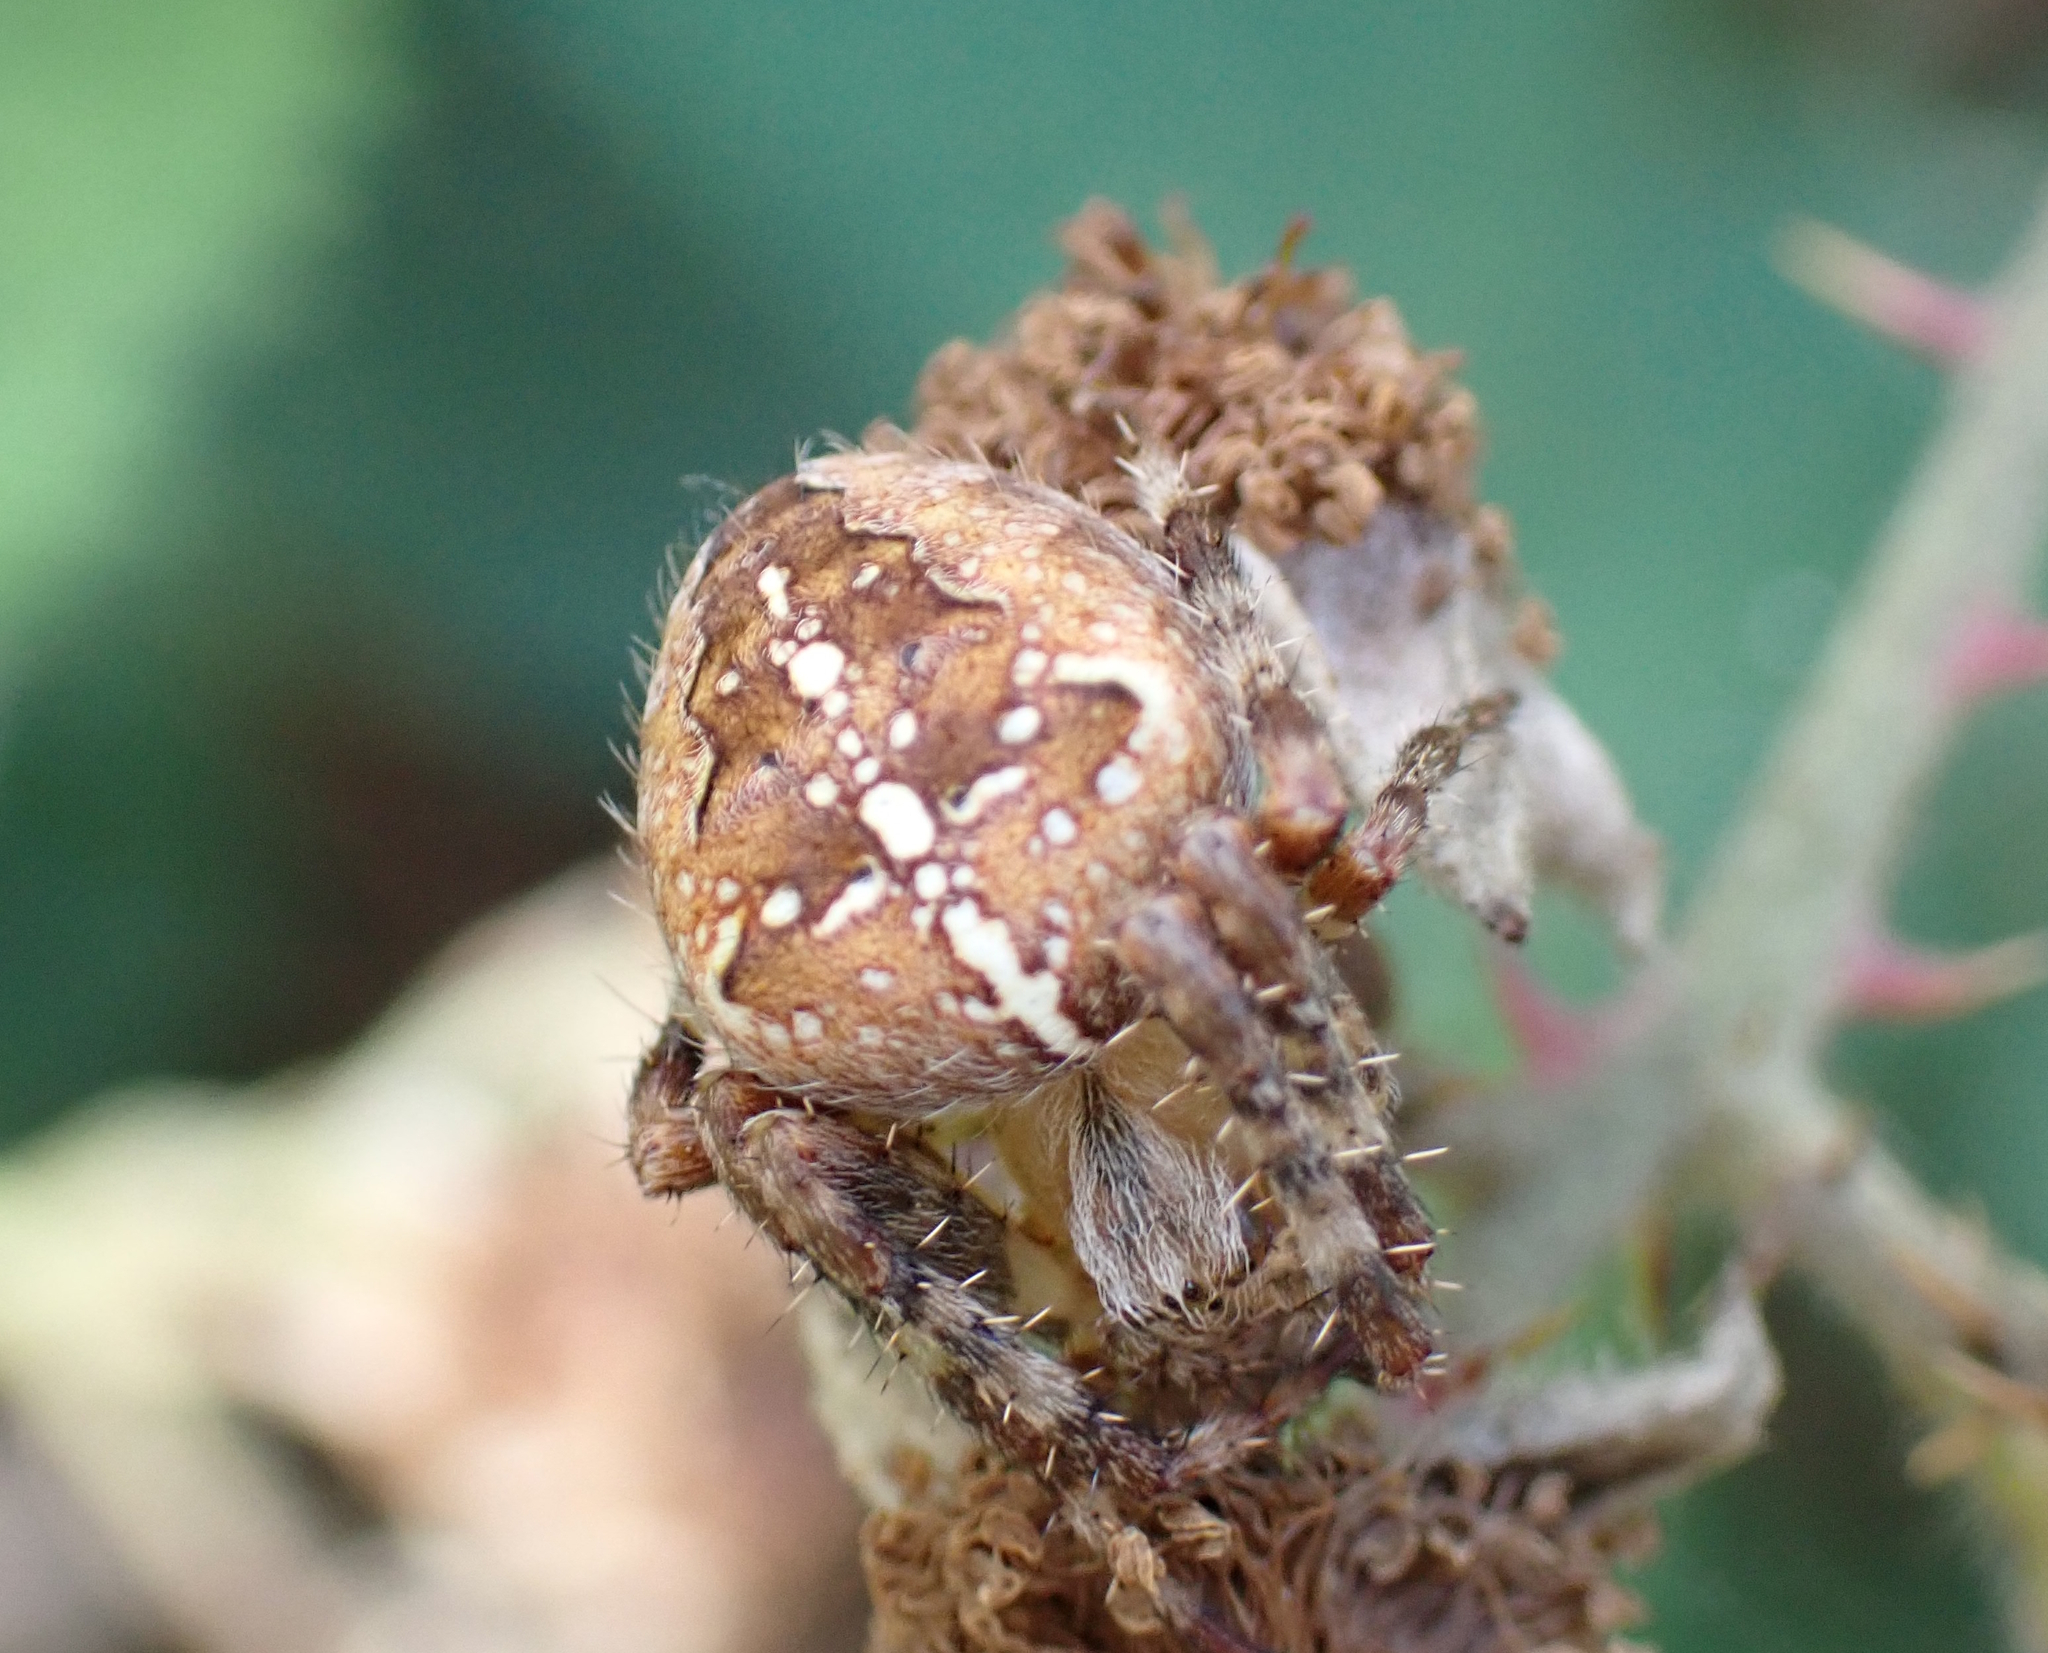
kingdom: Animalia
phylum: Arthropoda
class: Arachnida
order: Araneae
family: Araneidae
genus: Araneus
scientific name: Araneus diadematus
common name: Cross orbweaver
